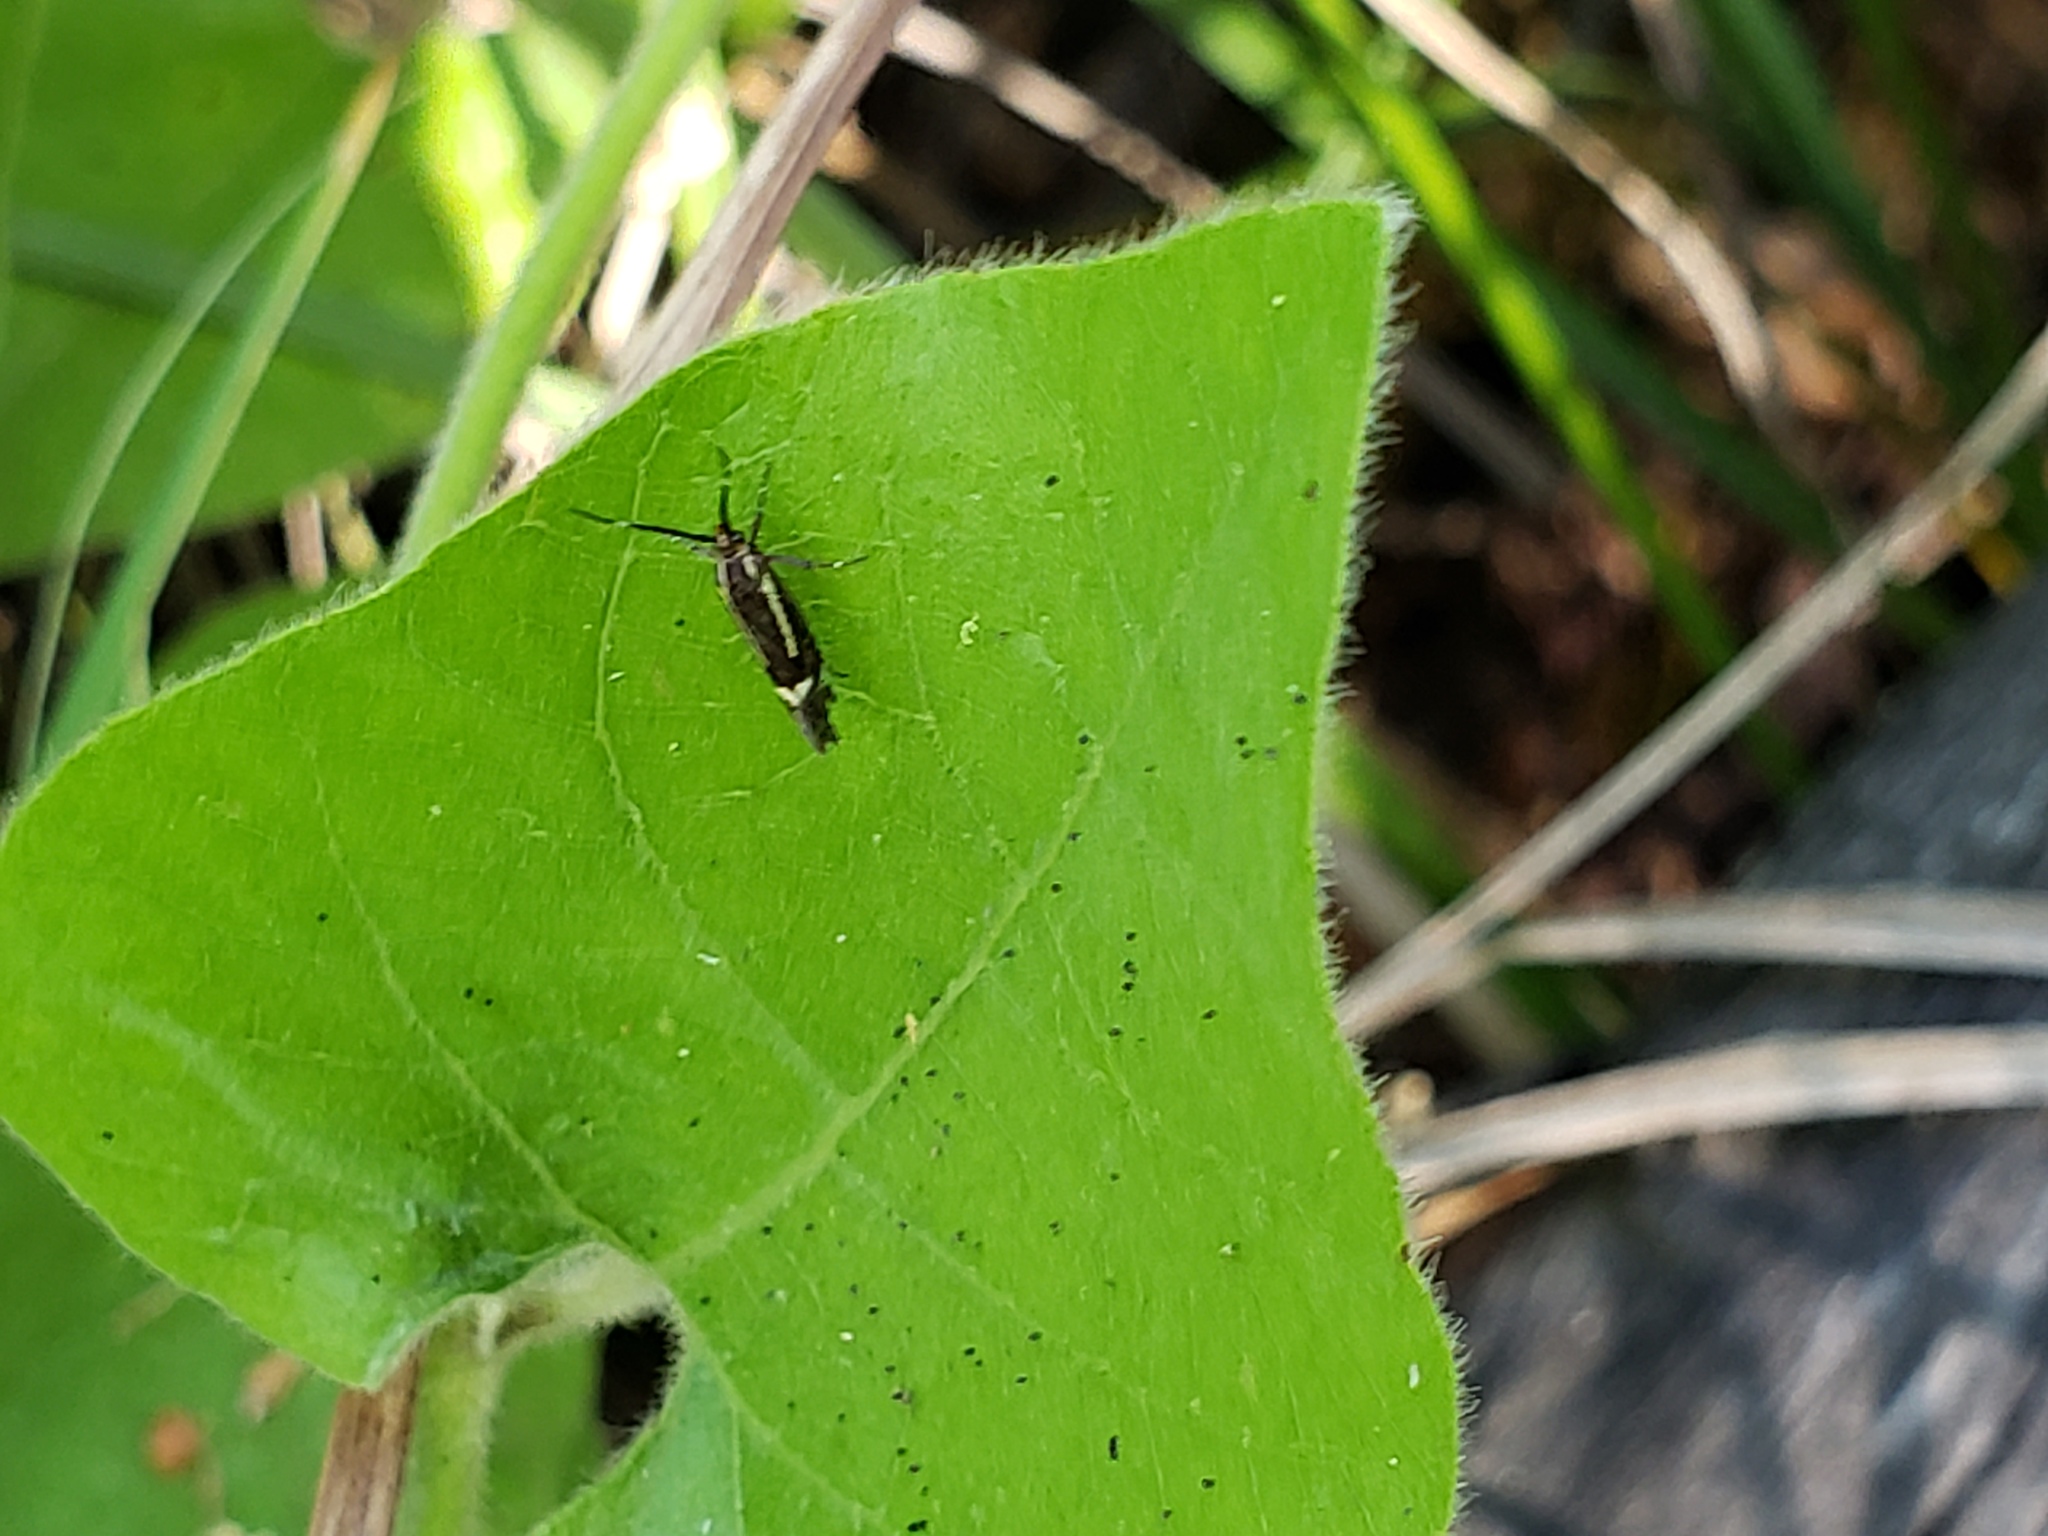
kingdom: Animalia
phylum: Arthropoda
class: Insecta
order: Lepidoptera
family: Oecophoridae
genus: Dafa
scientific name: Dafa Esperia sulphurella
